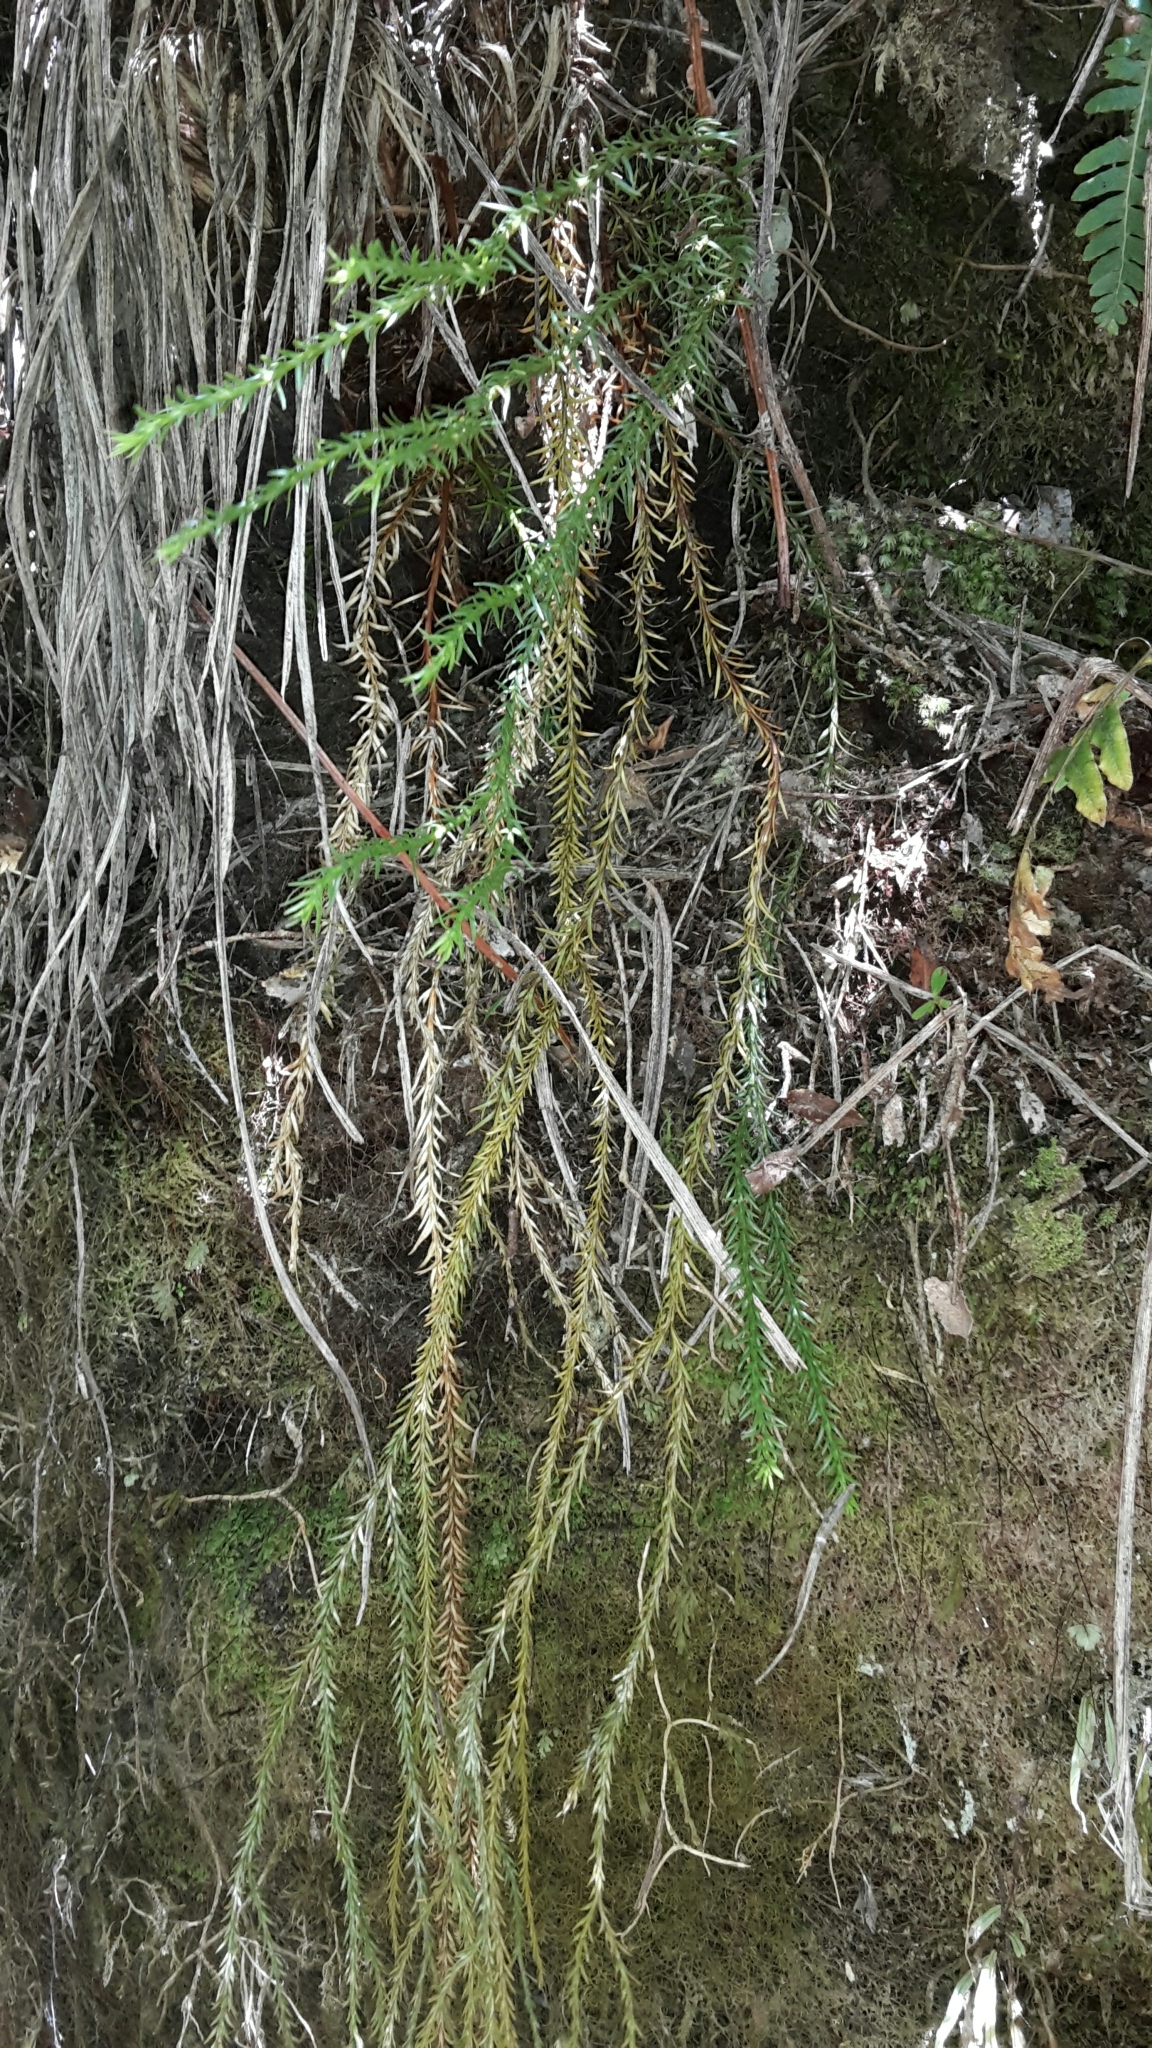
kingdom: Plantae
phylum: Tracheophyta
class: Lycopodiopsida
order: Lycopodiales
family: Lycopodiaceae
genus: Phlegmariurus
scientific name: Phlegmariurus varius
